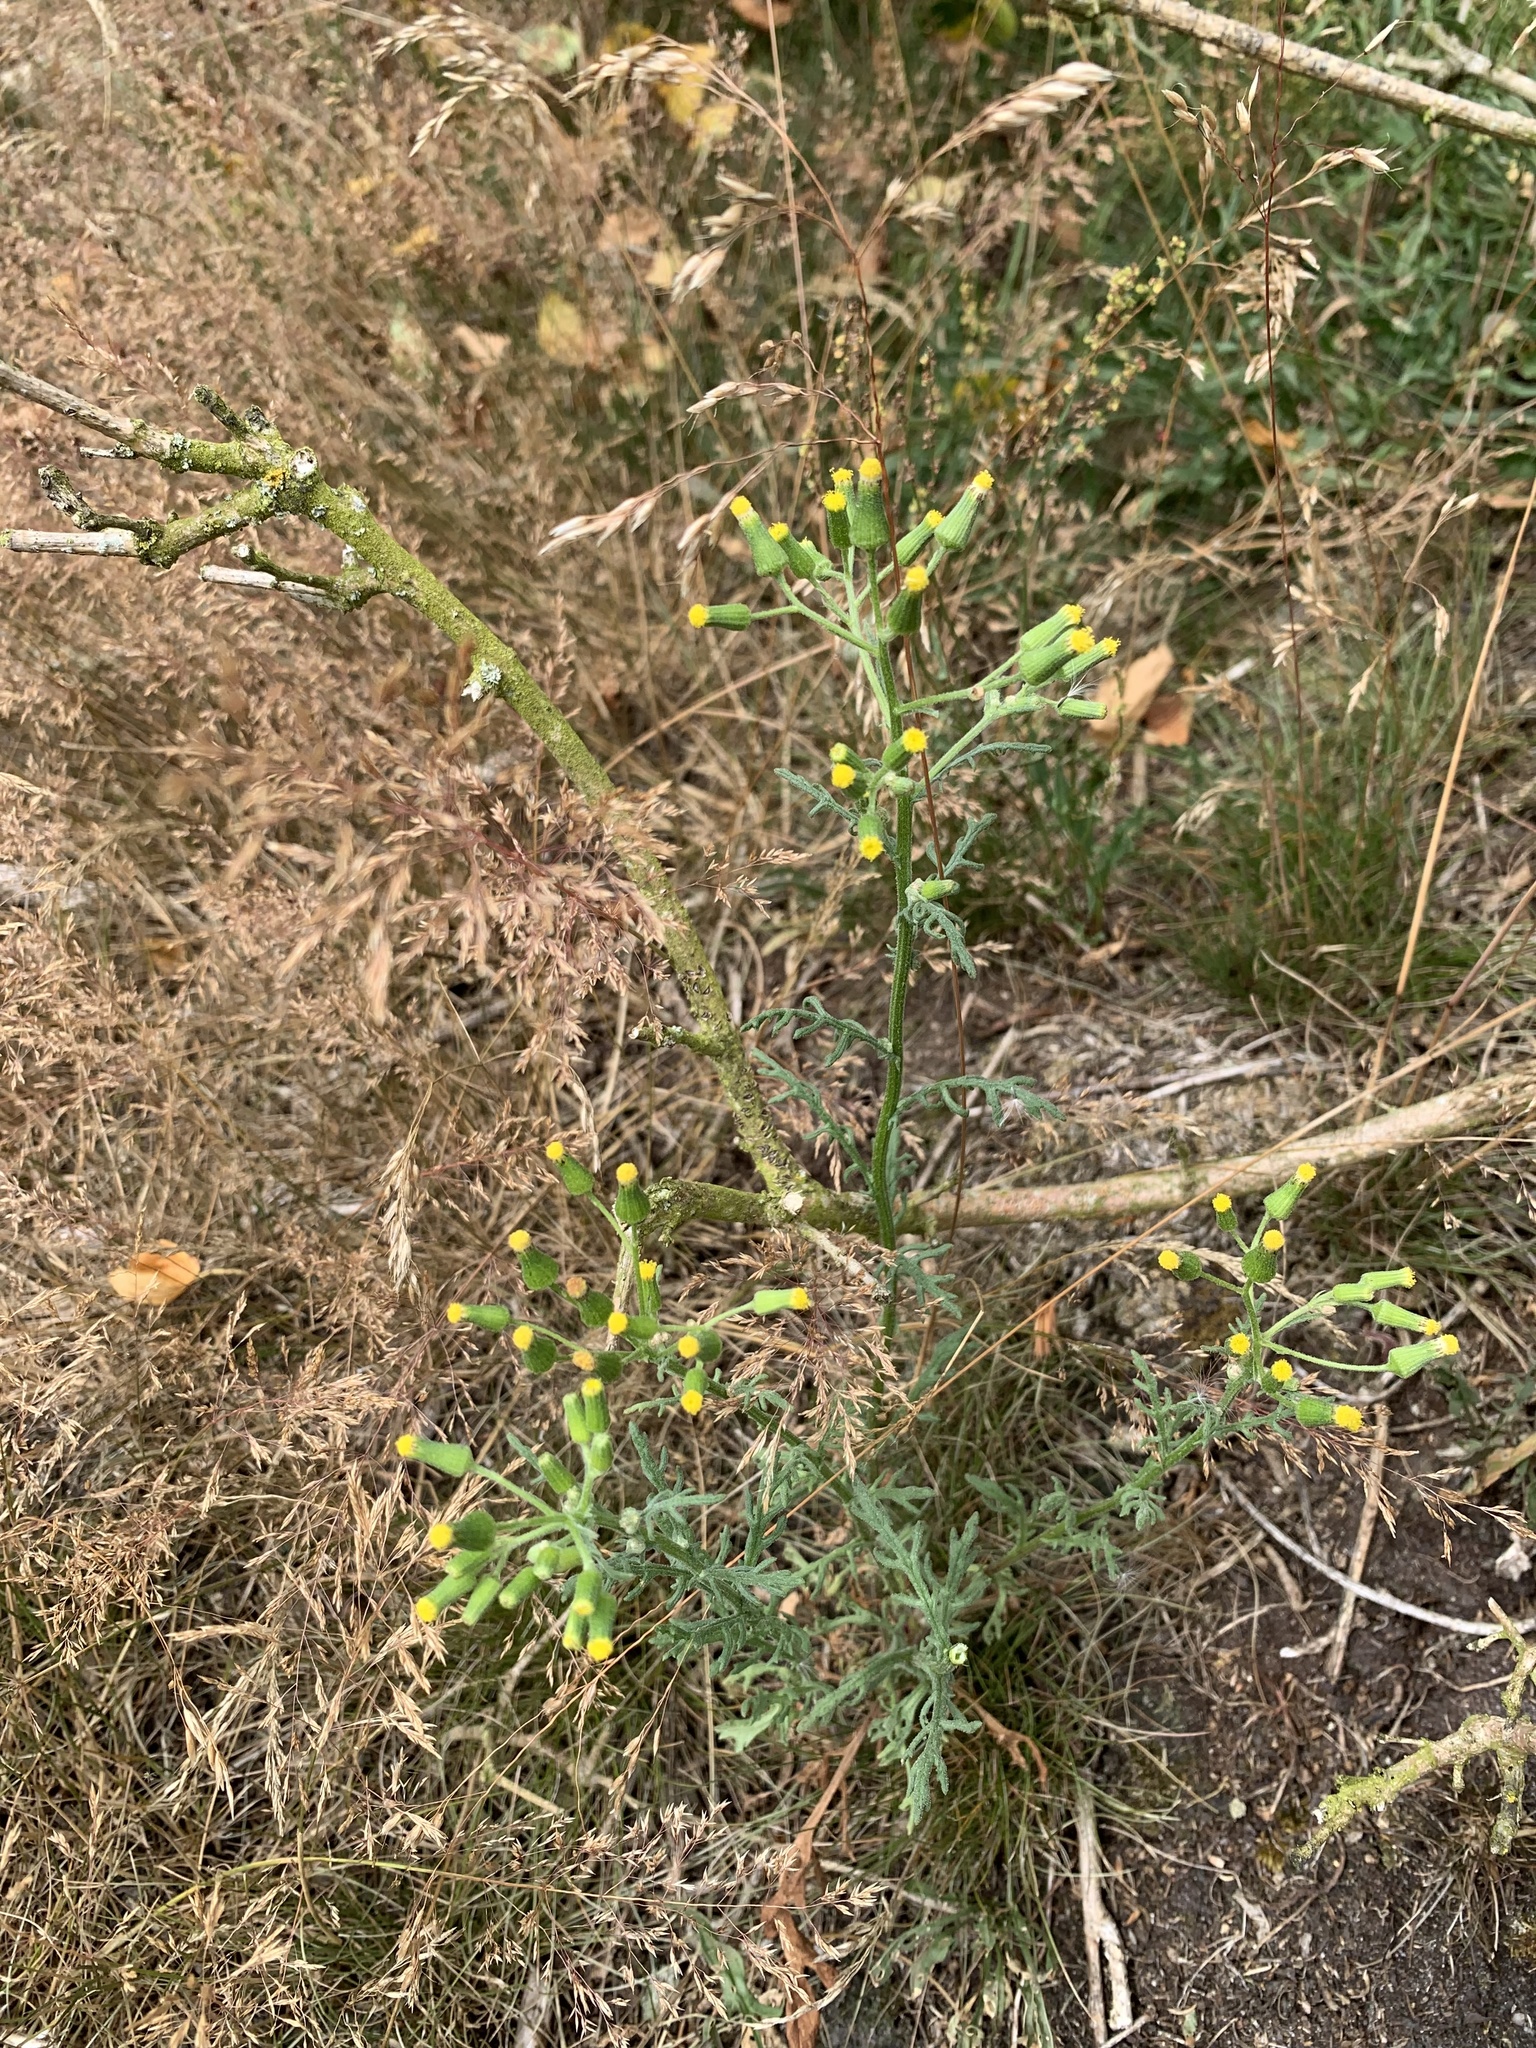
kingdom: Plantae
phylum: Tracheophyta
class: Magnoliopsida
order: Asterales
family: Asteraceae
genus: Senecio
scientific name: Senecio sylvaticus
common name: Woodland ragwort
